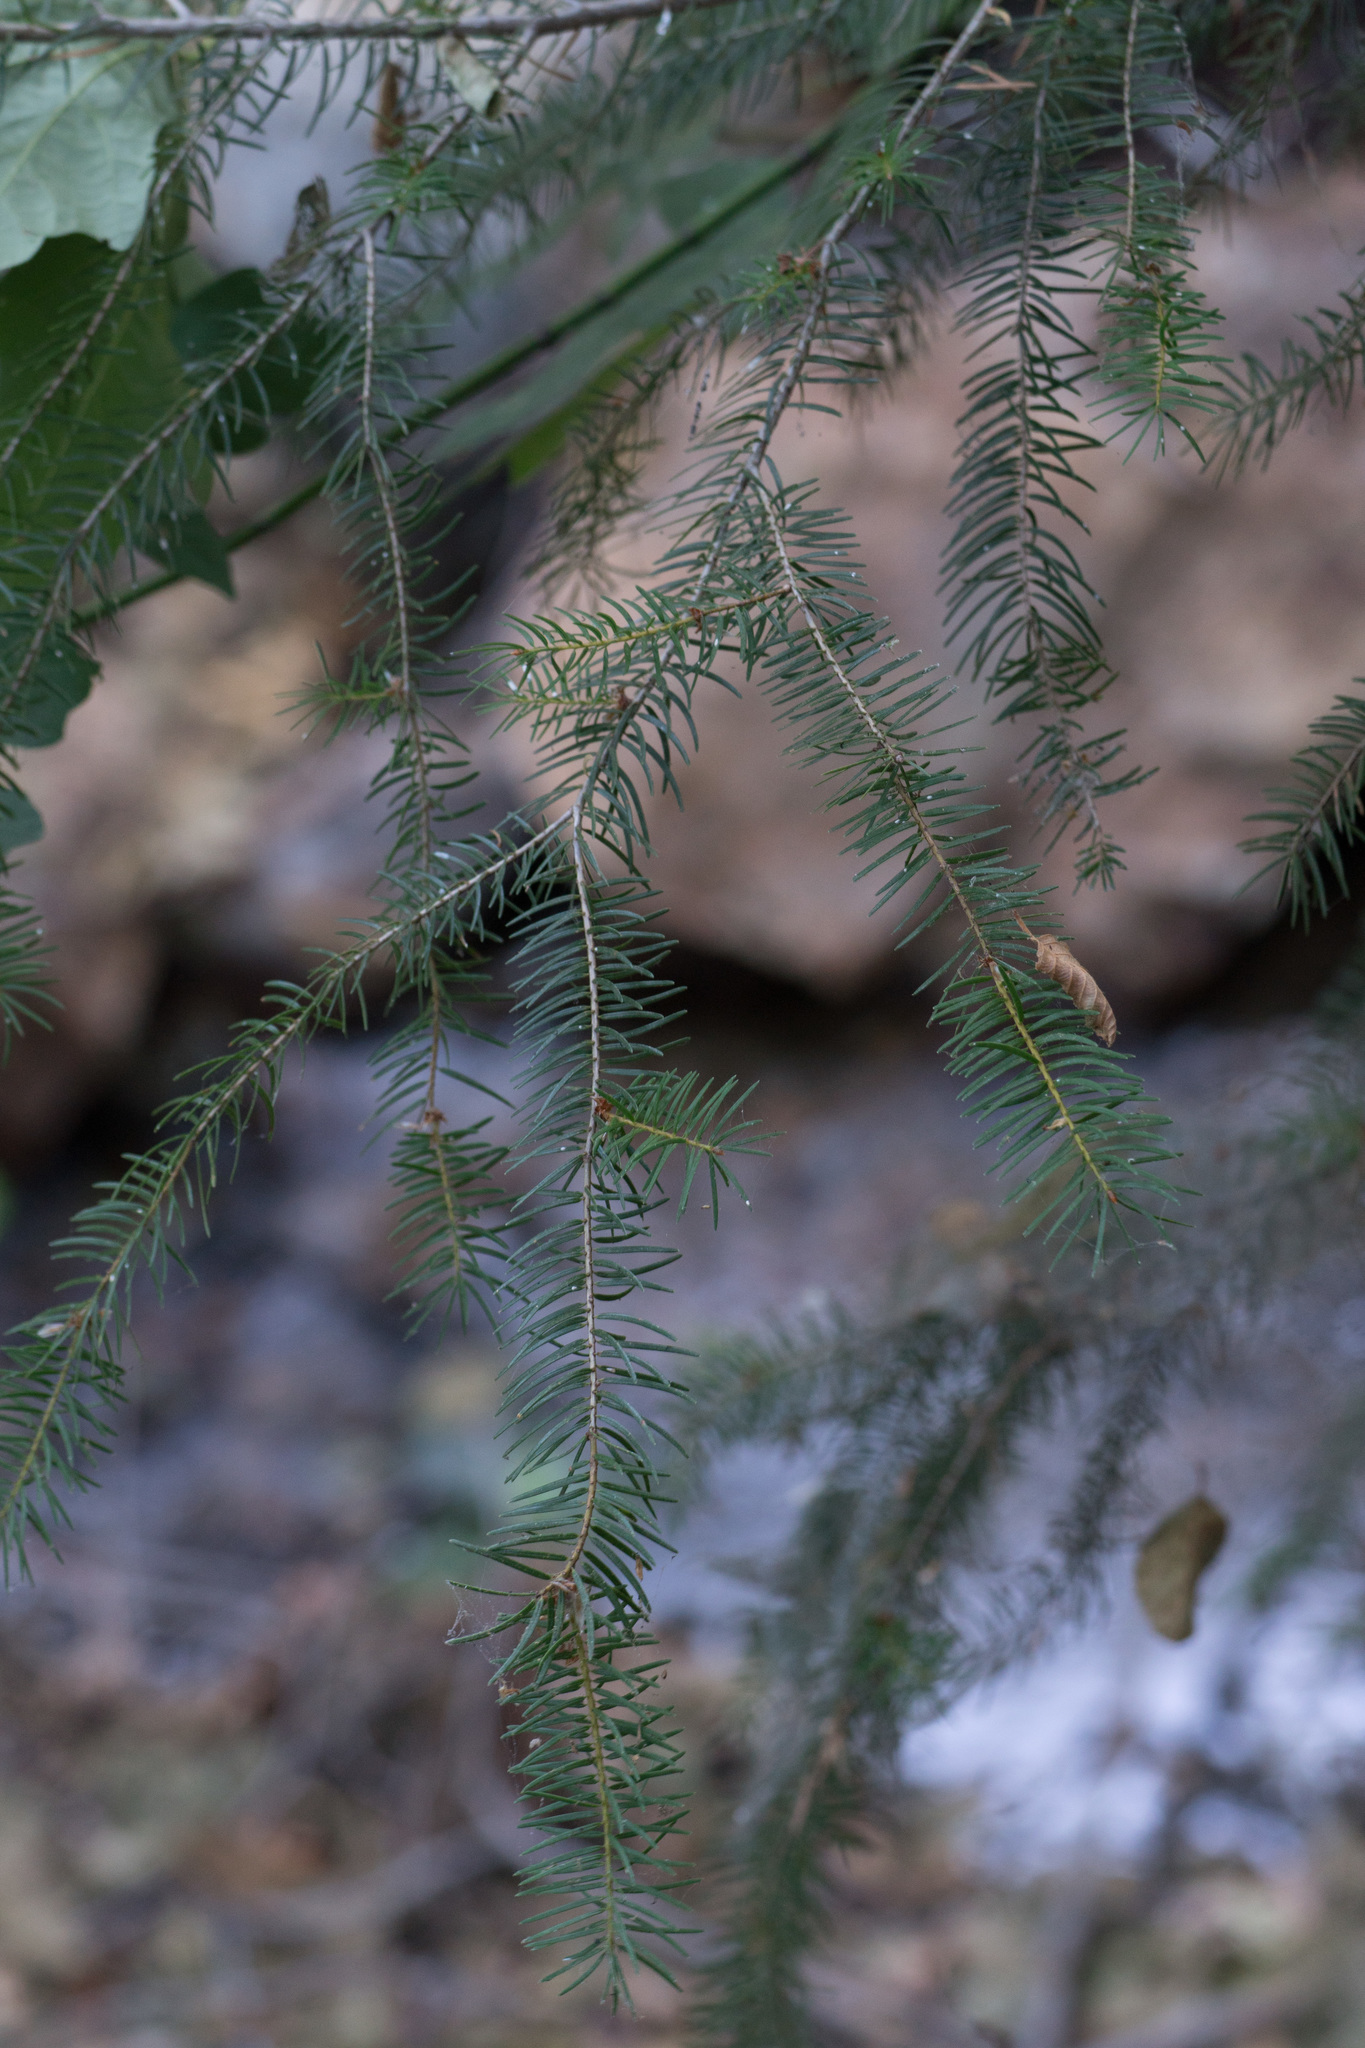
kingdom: Plantae
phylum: Tracheophyta
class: Pinopsida
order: Pinales
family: Pinaceae
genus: Pseudotsuga
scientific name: Pseudotsuga macrocarpa
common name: Big-cone douglas-fir
